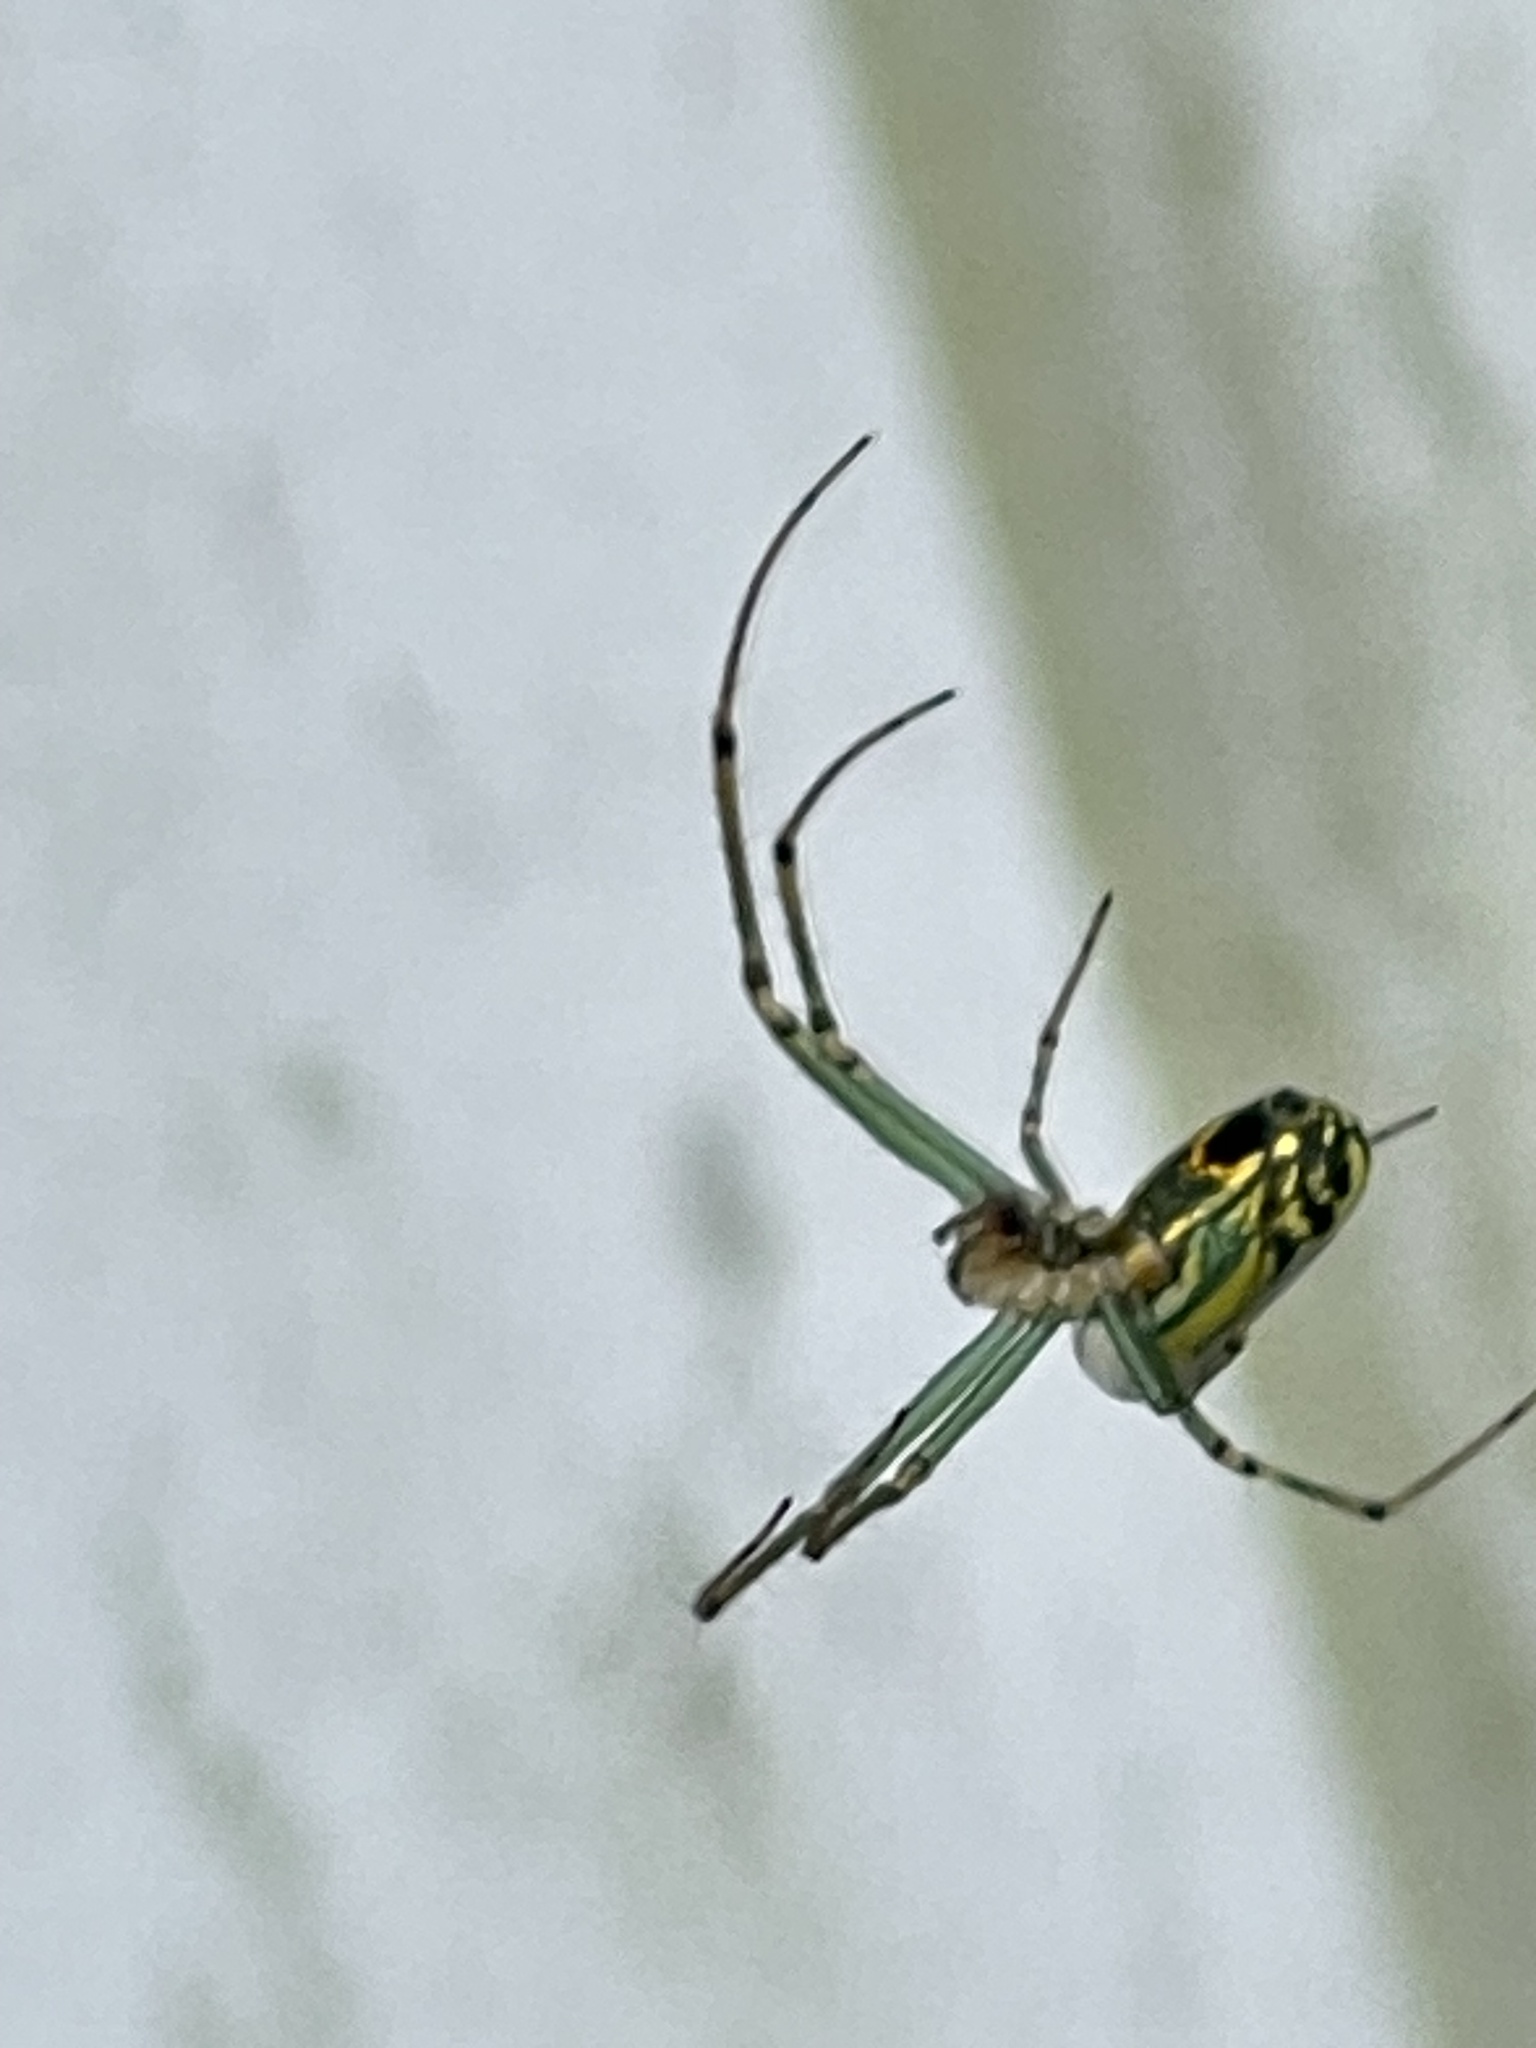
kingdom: Animalia
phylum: Arthropoda
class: Arachnida
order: Araneae
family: Tetragnathidae
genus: Leucauge
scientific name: Leucauge venusta
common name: Longjawed orb weavers
